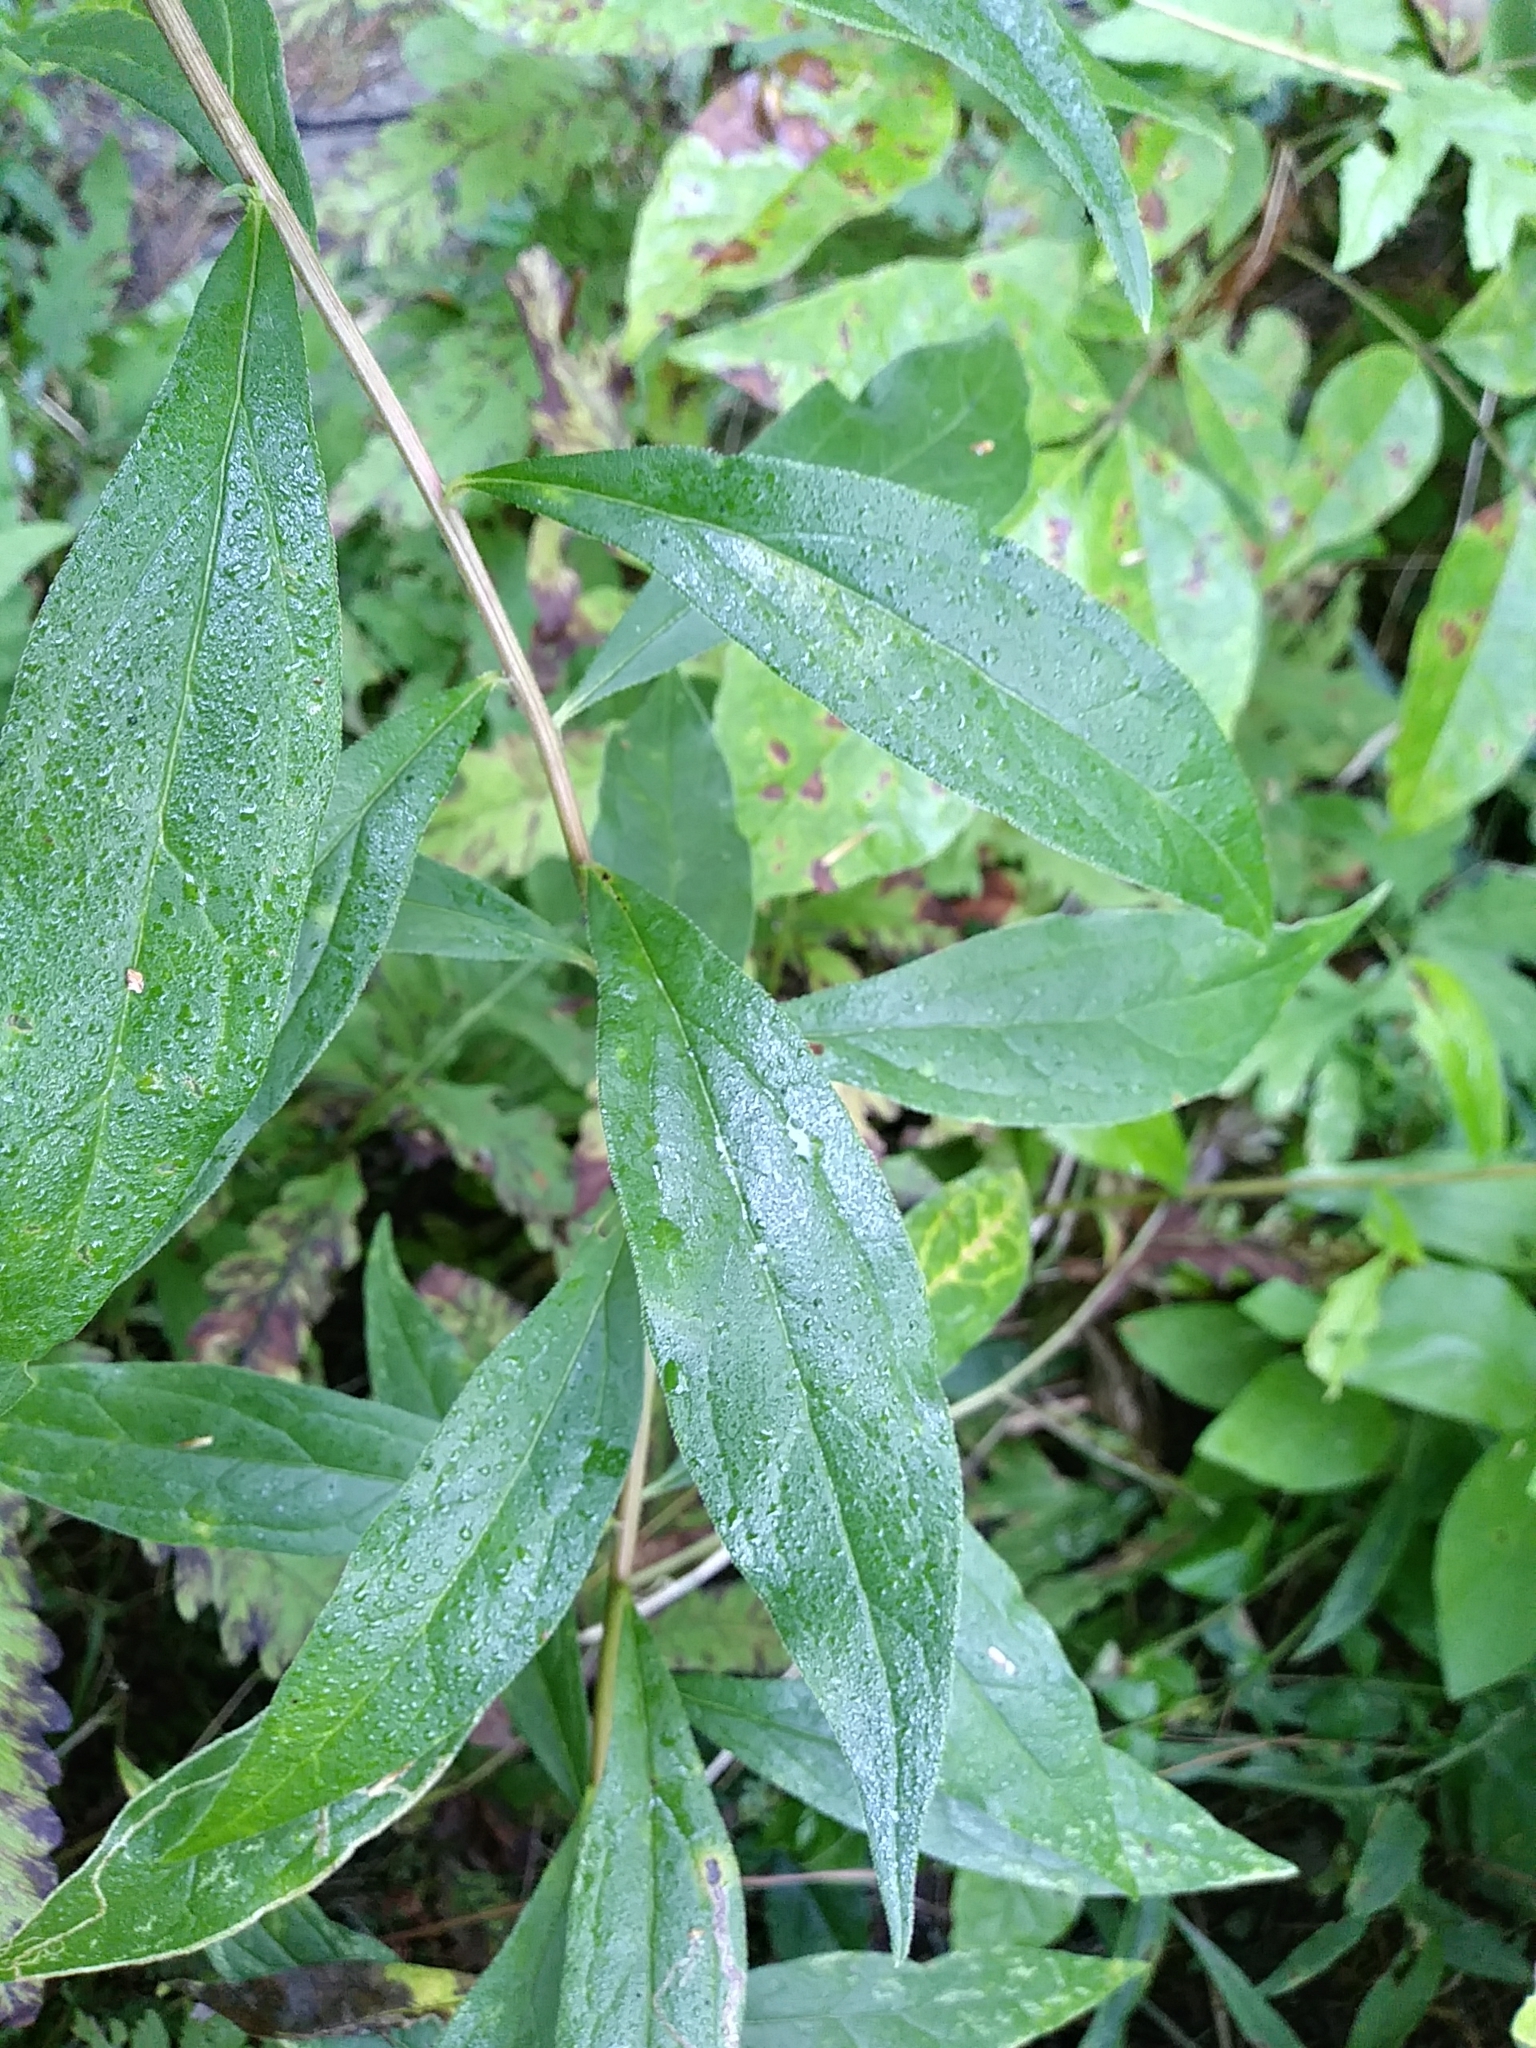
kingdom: Plantae
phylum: Tracheophyta
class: Magnoliopsida
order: Asterales
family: Asteraceae
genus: Doellingeria
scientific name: Doellingeria umbellata
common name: Flat-top white aster
